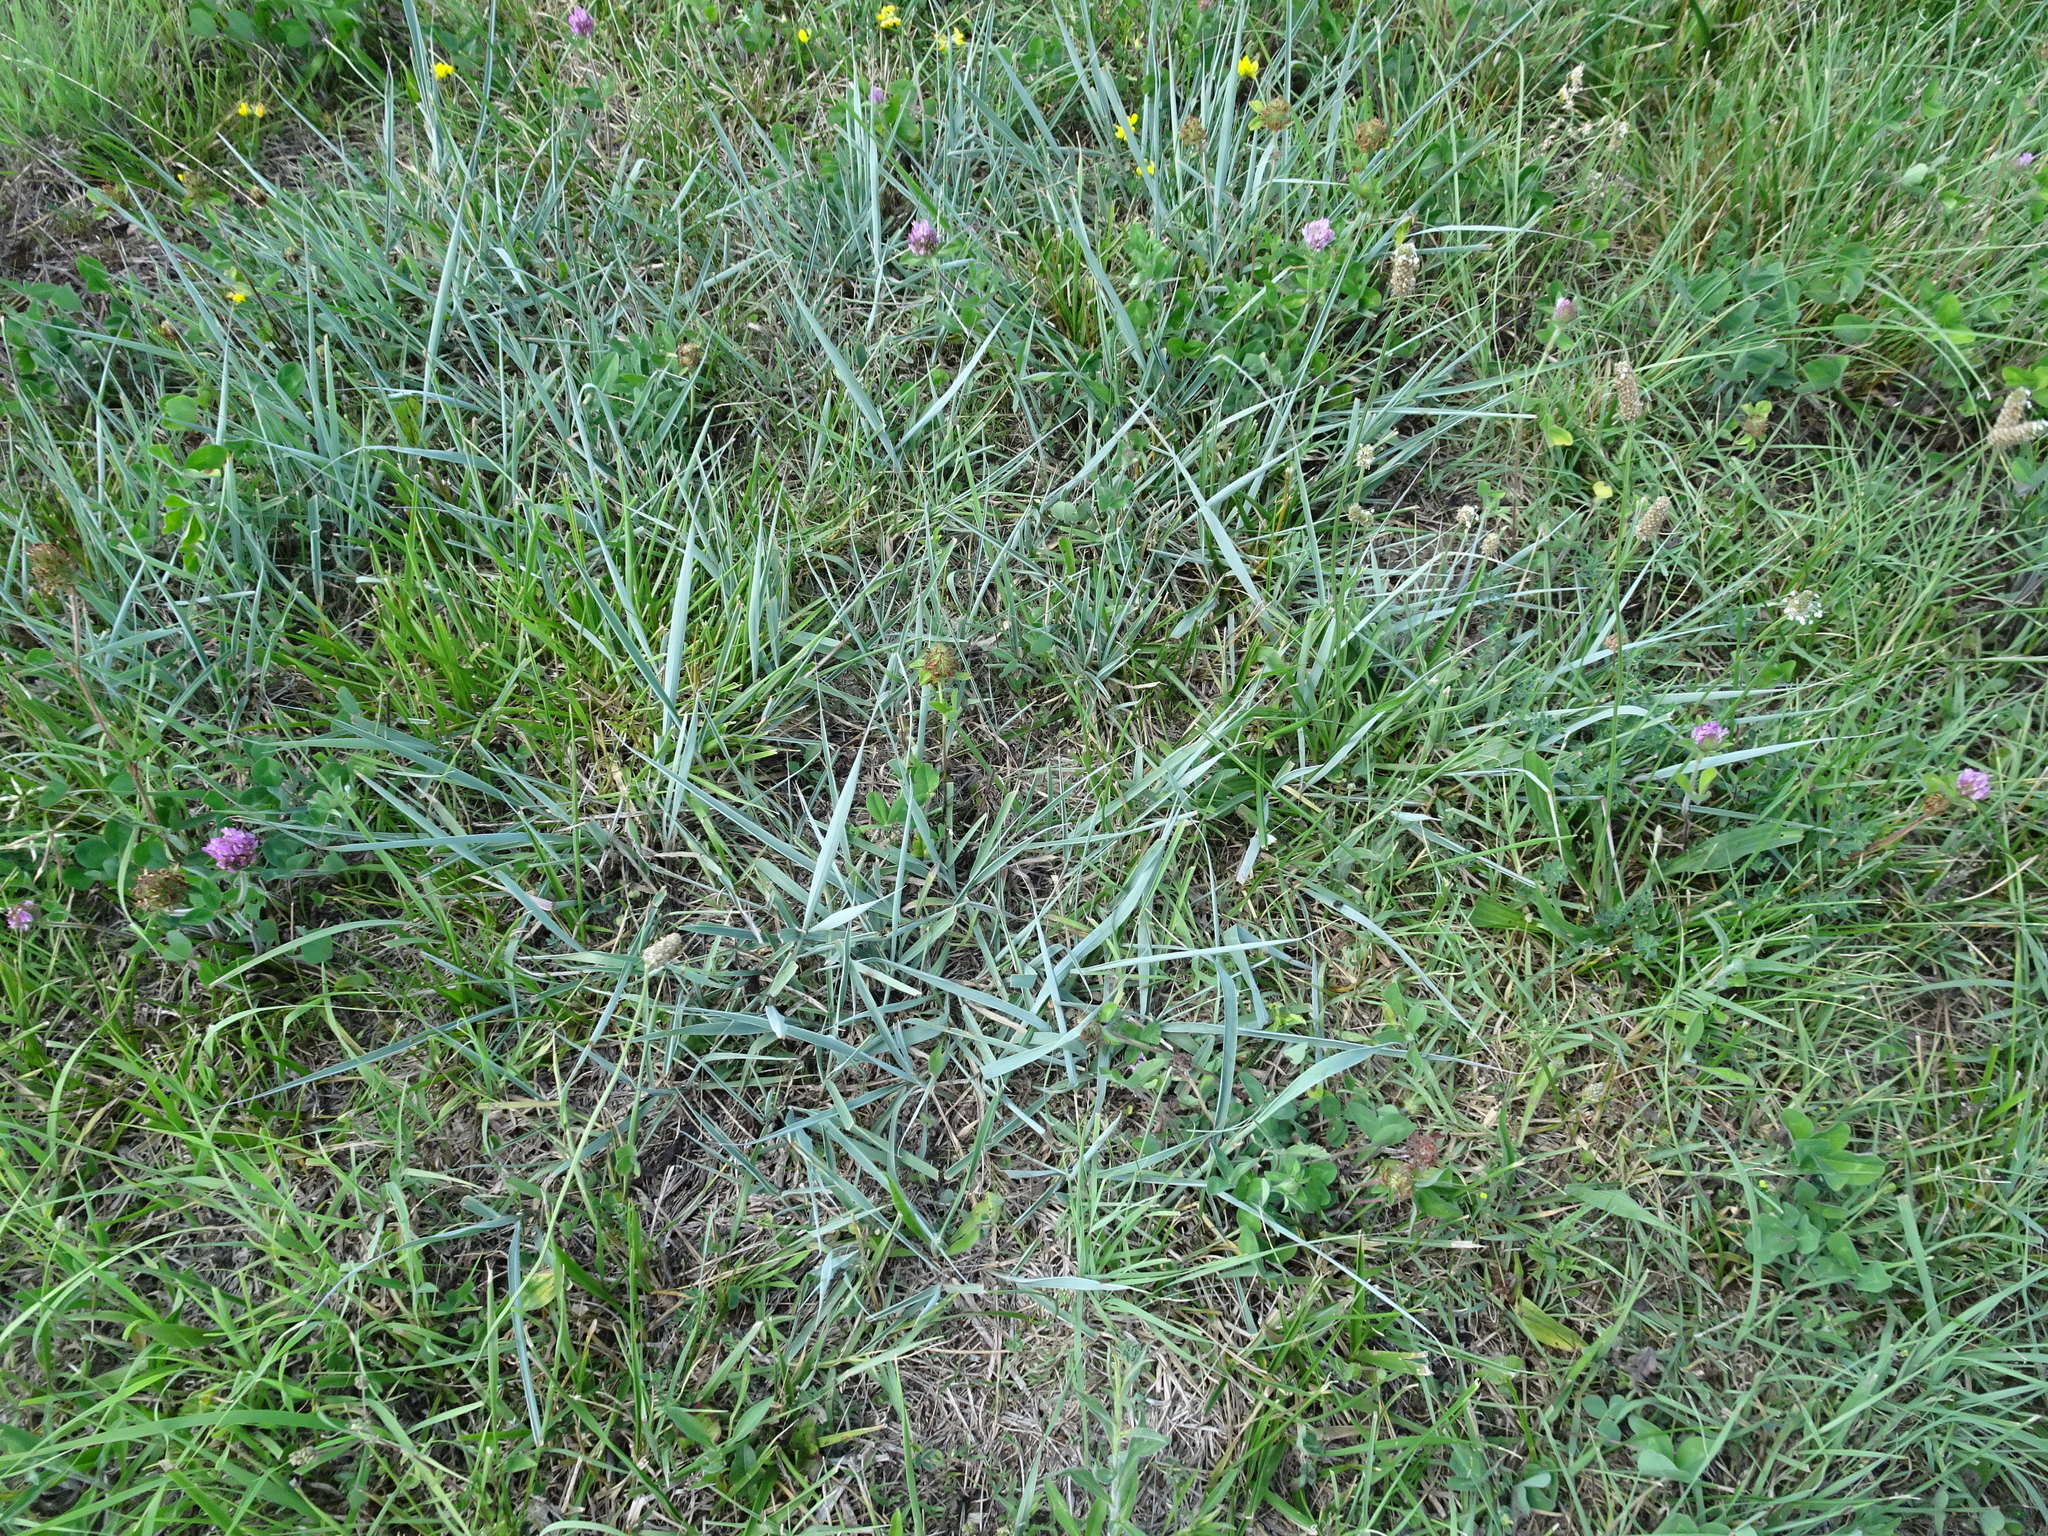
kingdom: Plantae
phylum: Tracheophyta
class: Liliopsida
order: Poales
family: Poaceae
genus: Sorghastrum
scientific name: Sorghastrum nutans
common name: Indian grass
